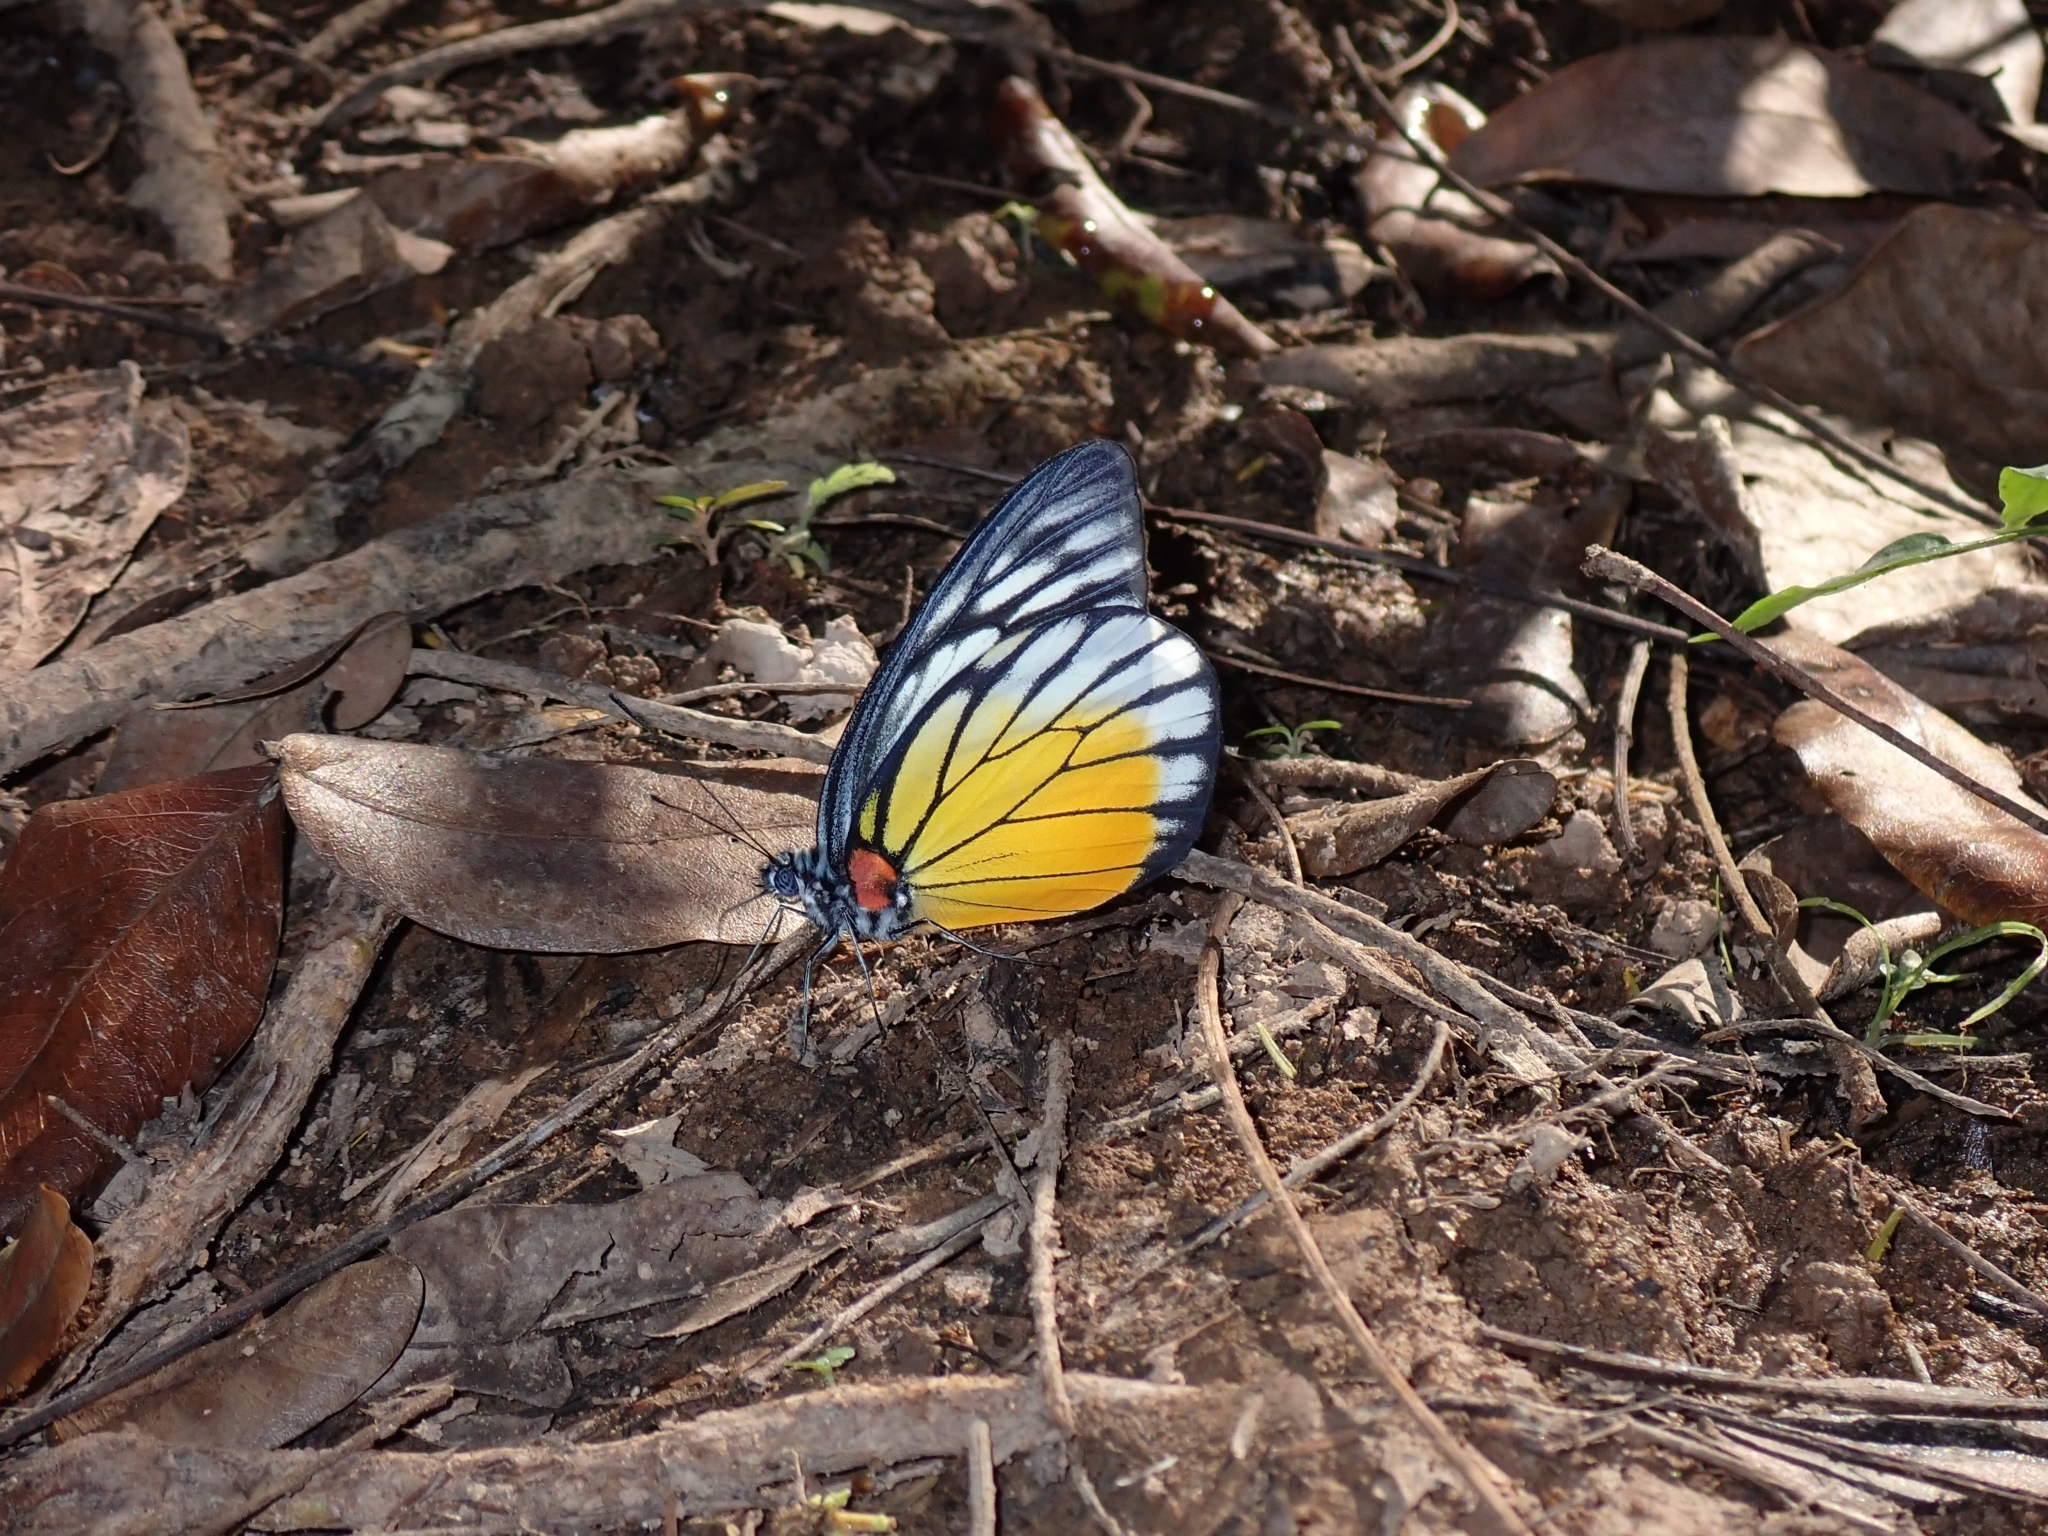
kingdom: Animalia
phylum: Arthropoda
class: Insecta
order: Lepidoptera
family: Pieridae
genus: Prioneris
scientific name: Prioneris philonome
